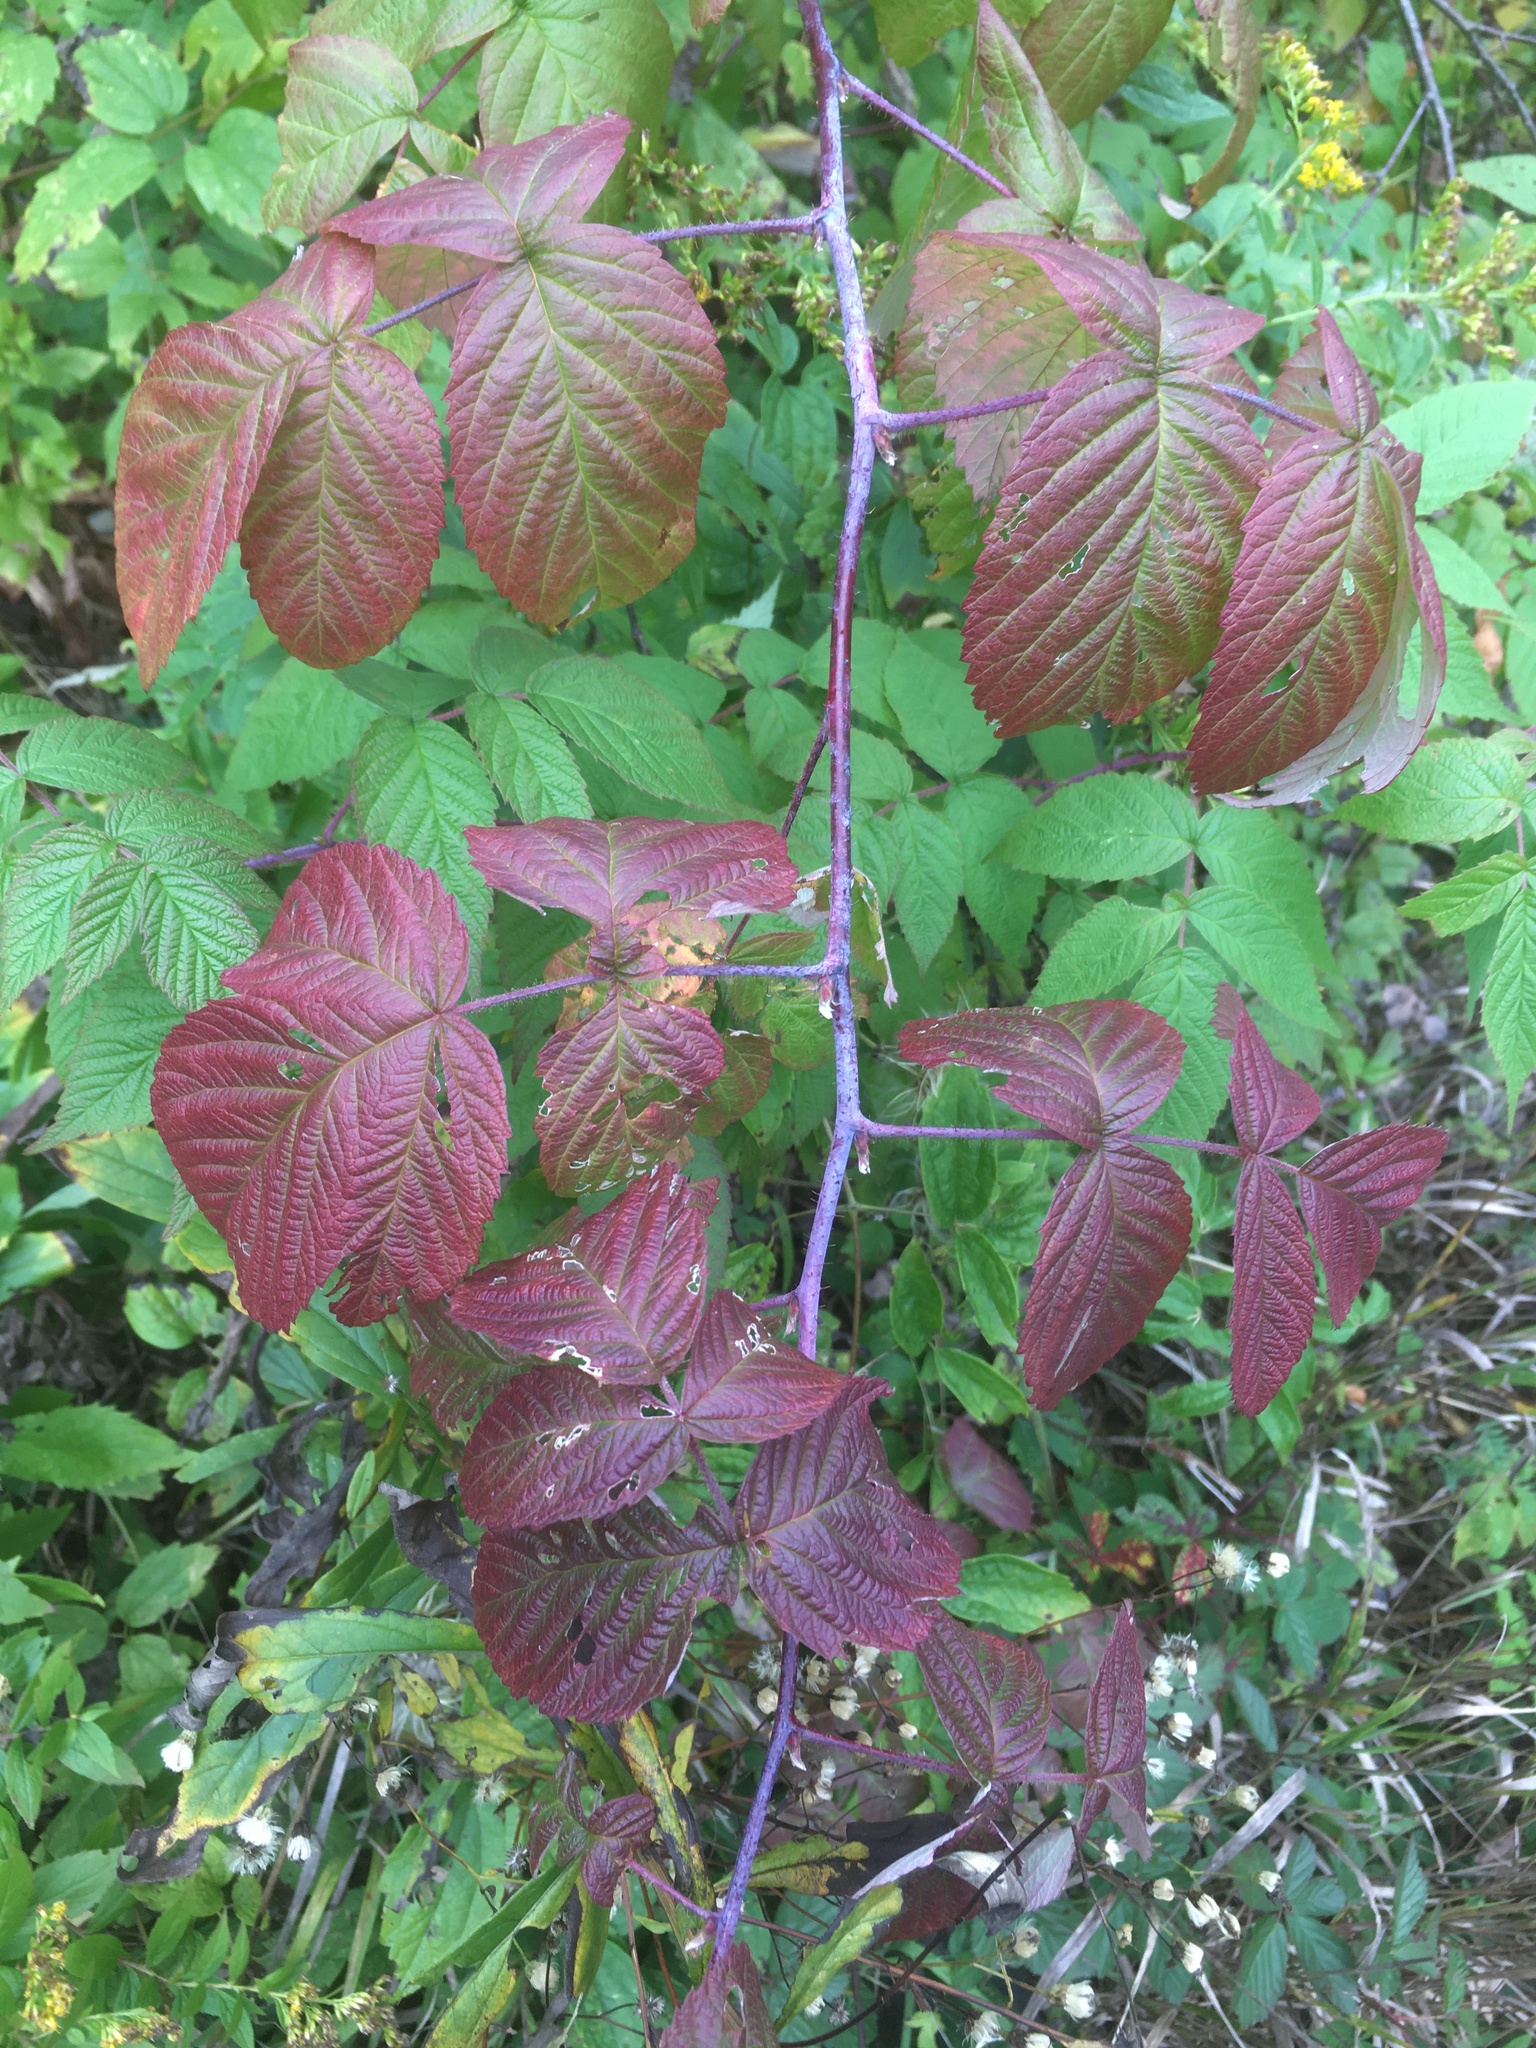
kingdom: Plantae
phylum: Tracheophyta
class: Magnoliopsida
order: Rosales
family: Rosaceae
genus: Rubus
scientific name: Rubus occidentalis
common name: Black raspberry
